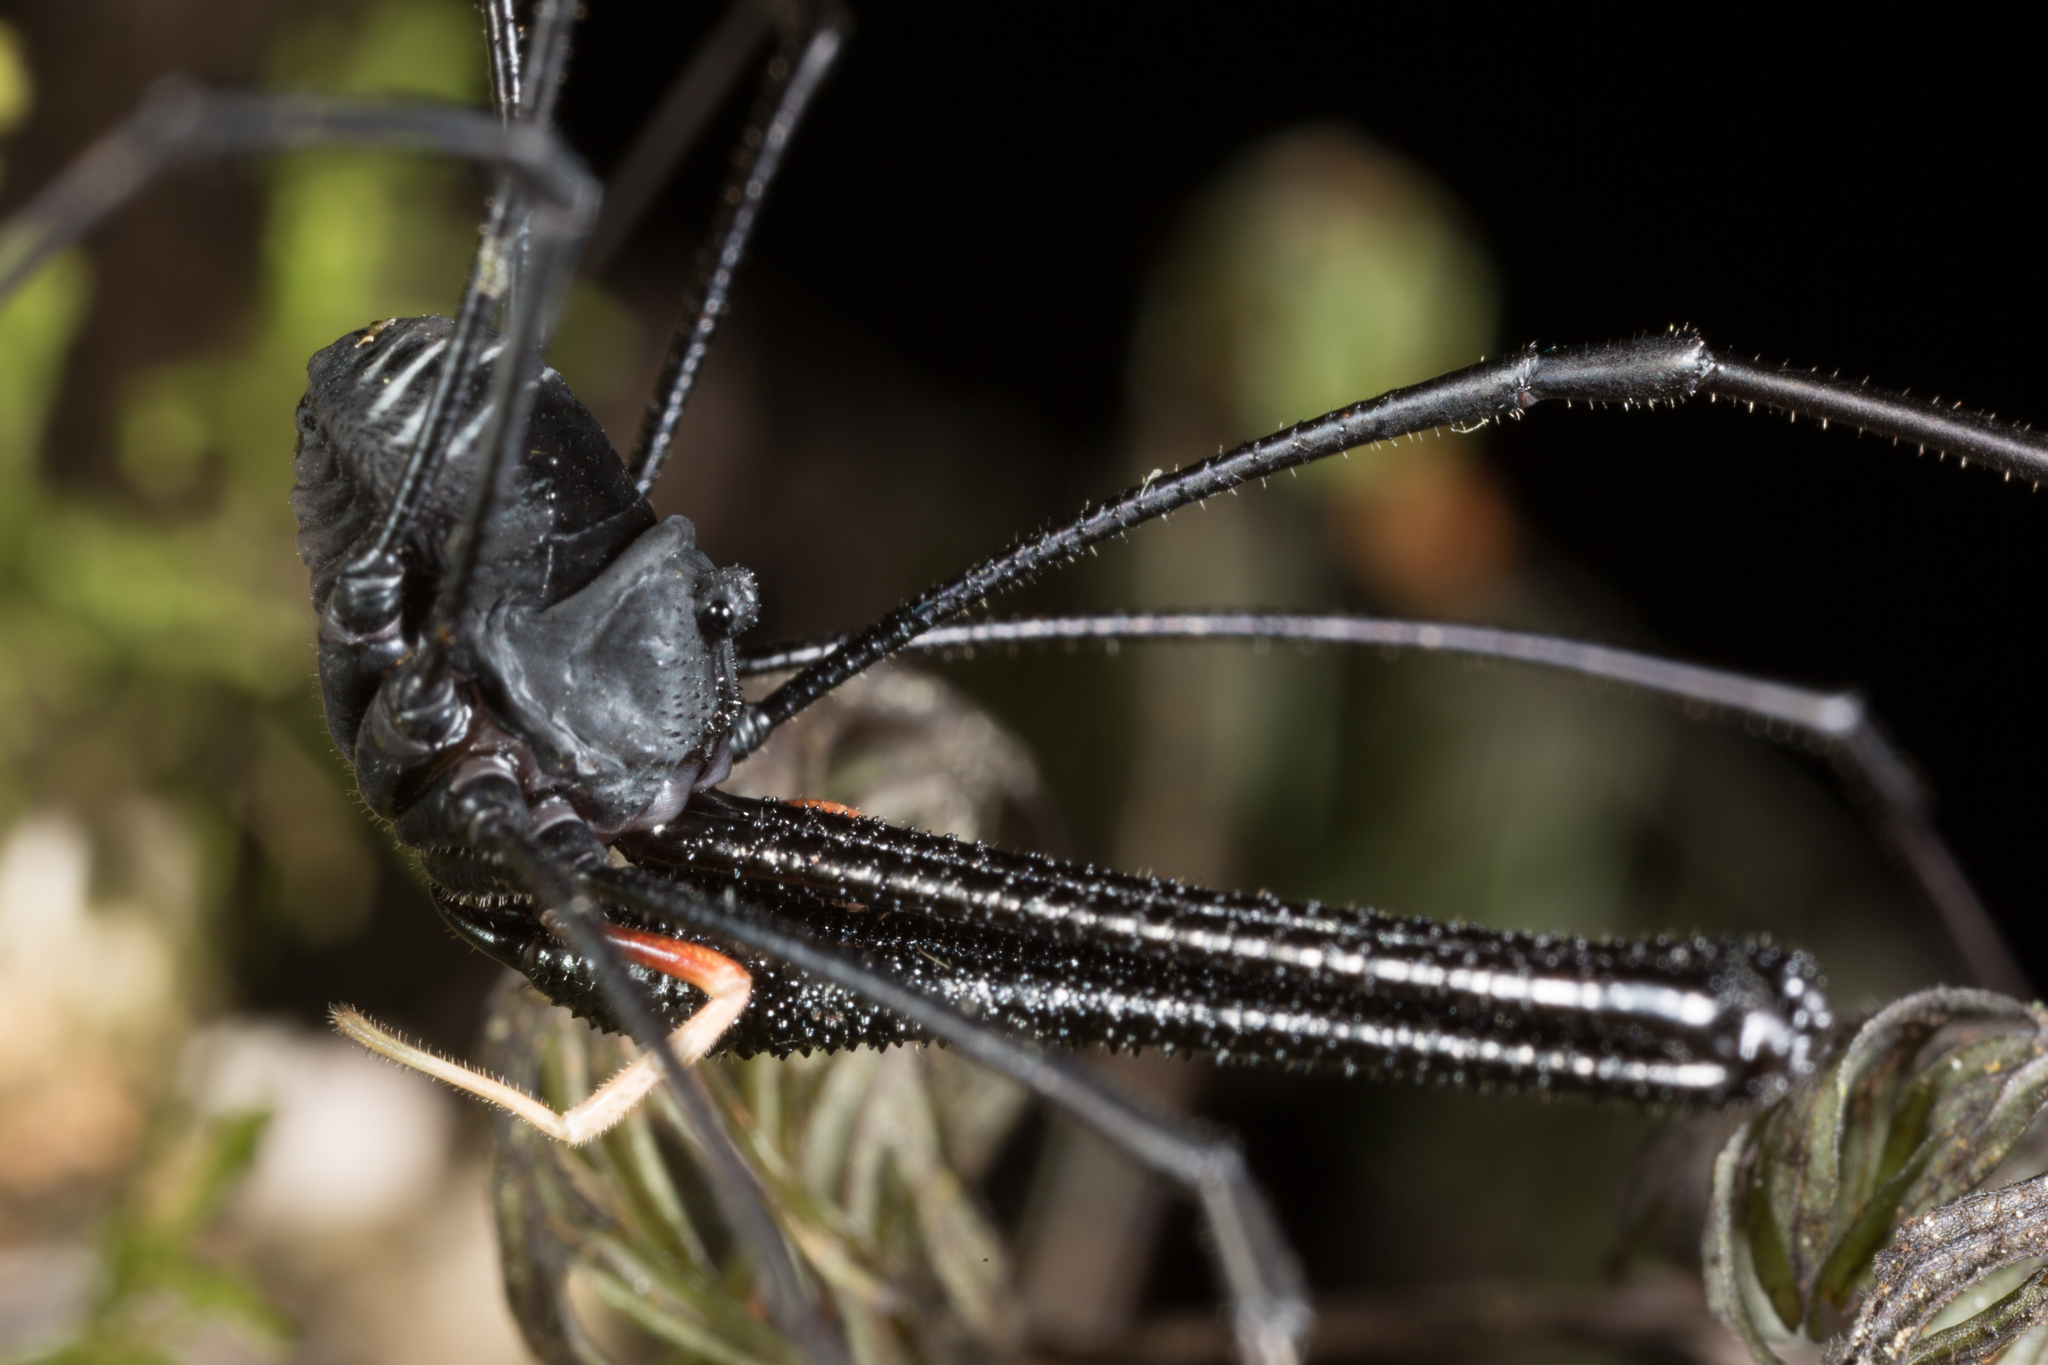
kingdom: Animalia
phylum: Arthropoda
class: Arachnida
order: Opiliones
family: Neopilionidae
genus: Pantopsalis
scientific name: Pantopsalis cheliferoides
